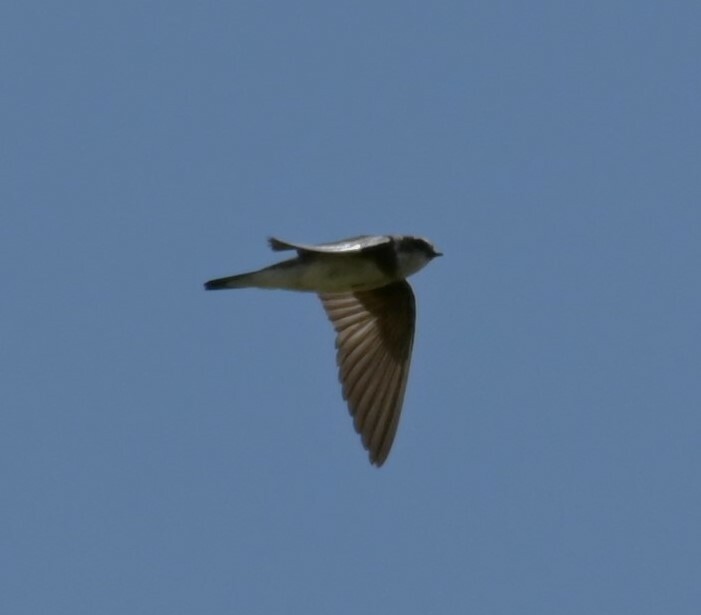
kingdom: Animalia
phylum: Chordata
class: Aves
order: Passeriformes
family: Hirundinidae
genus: Riparia
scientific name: Riparia riparia
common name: Sand martin
